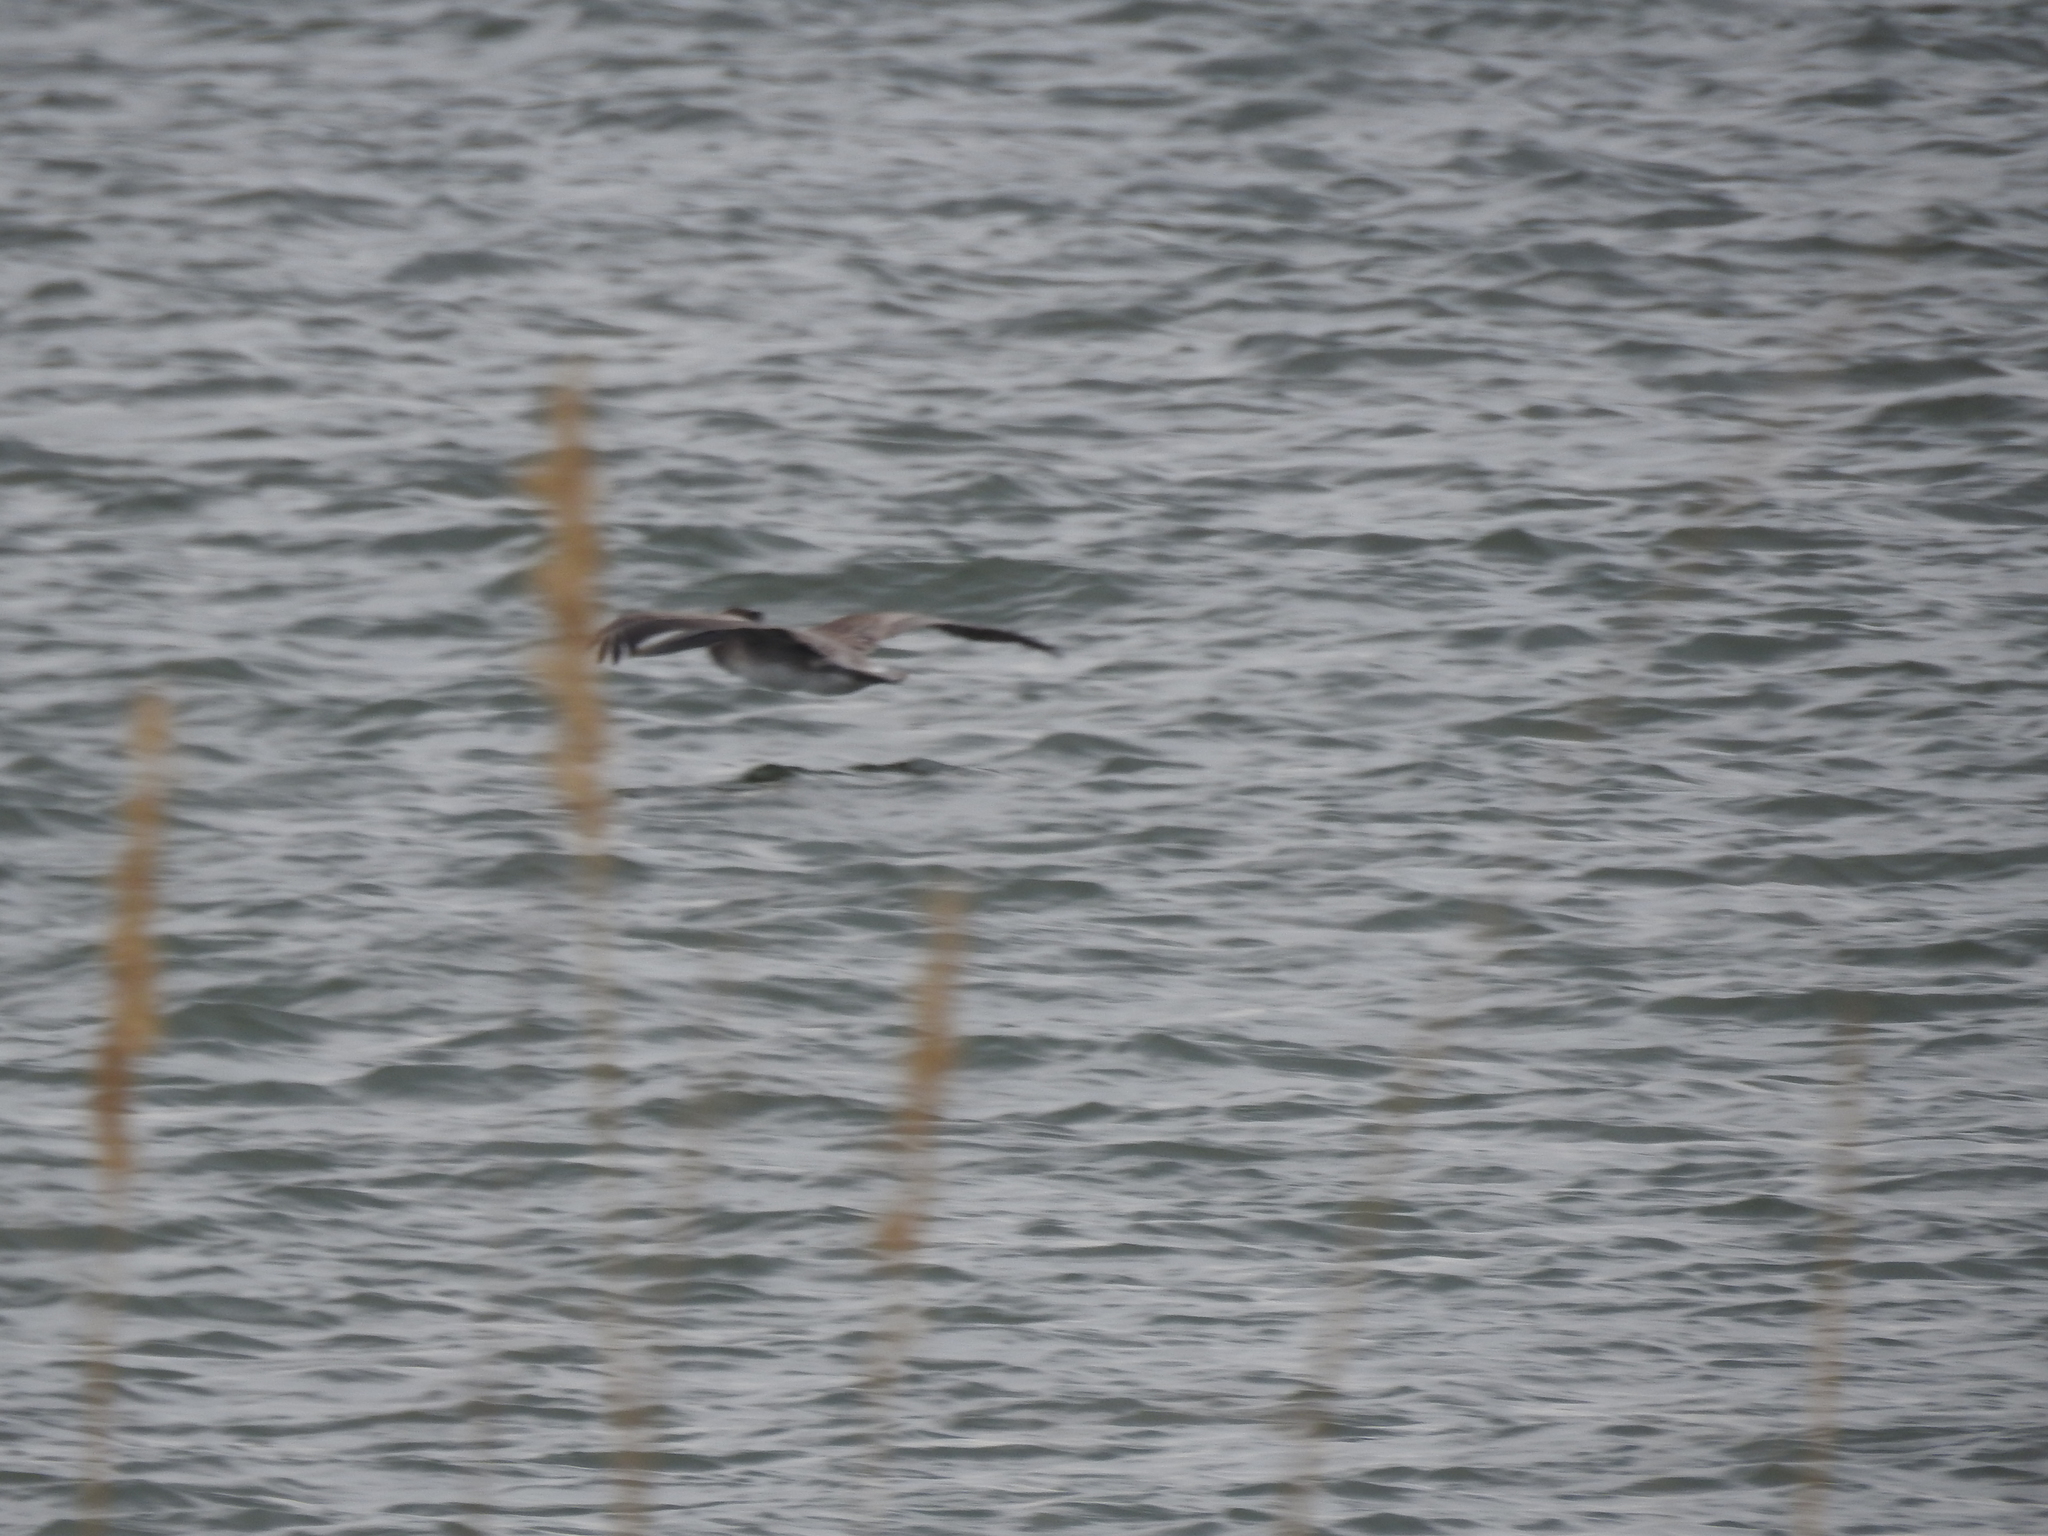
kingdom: Animalia
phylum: Chordata
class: Aves
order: Pelecaniformes
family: Pelecanidae
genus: Pelecanus
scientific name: Pelecanus occidentalis
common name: Brown pelican
